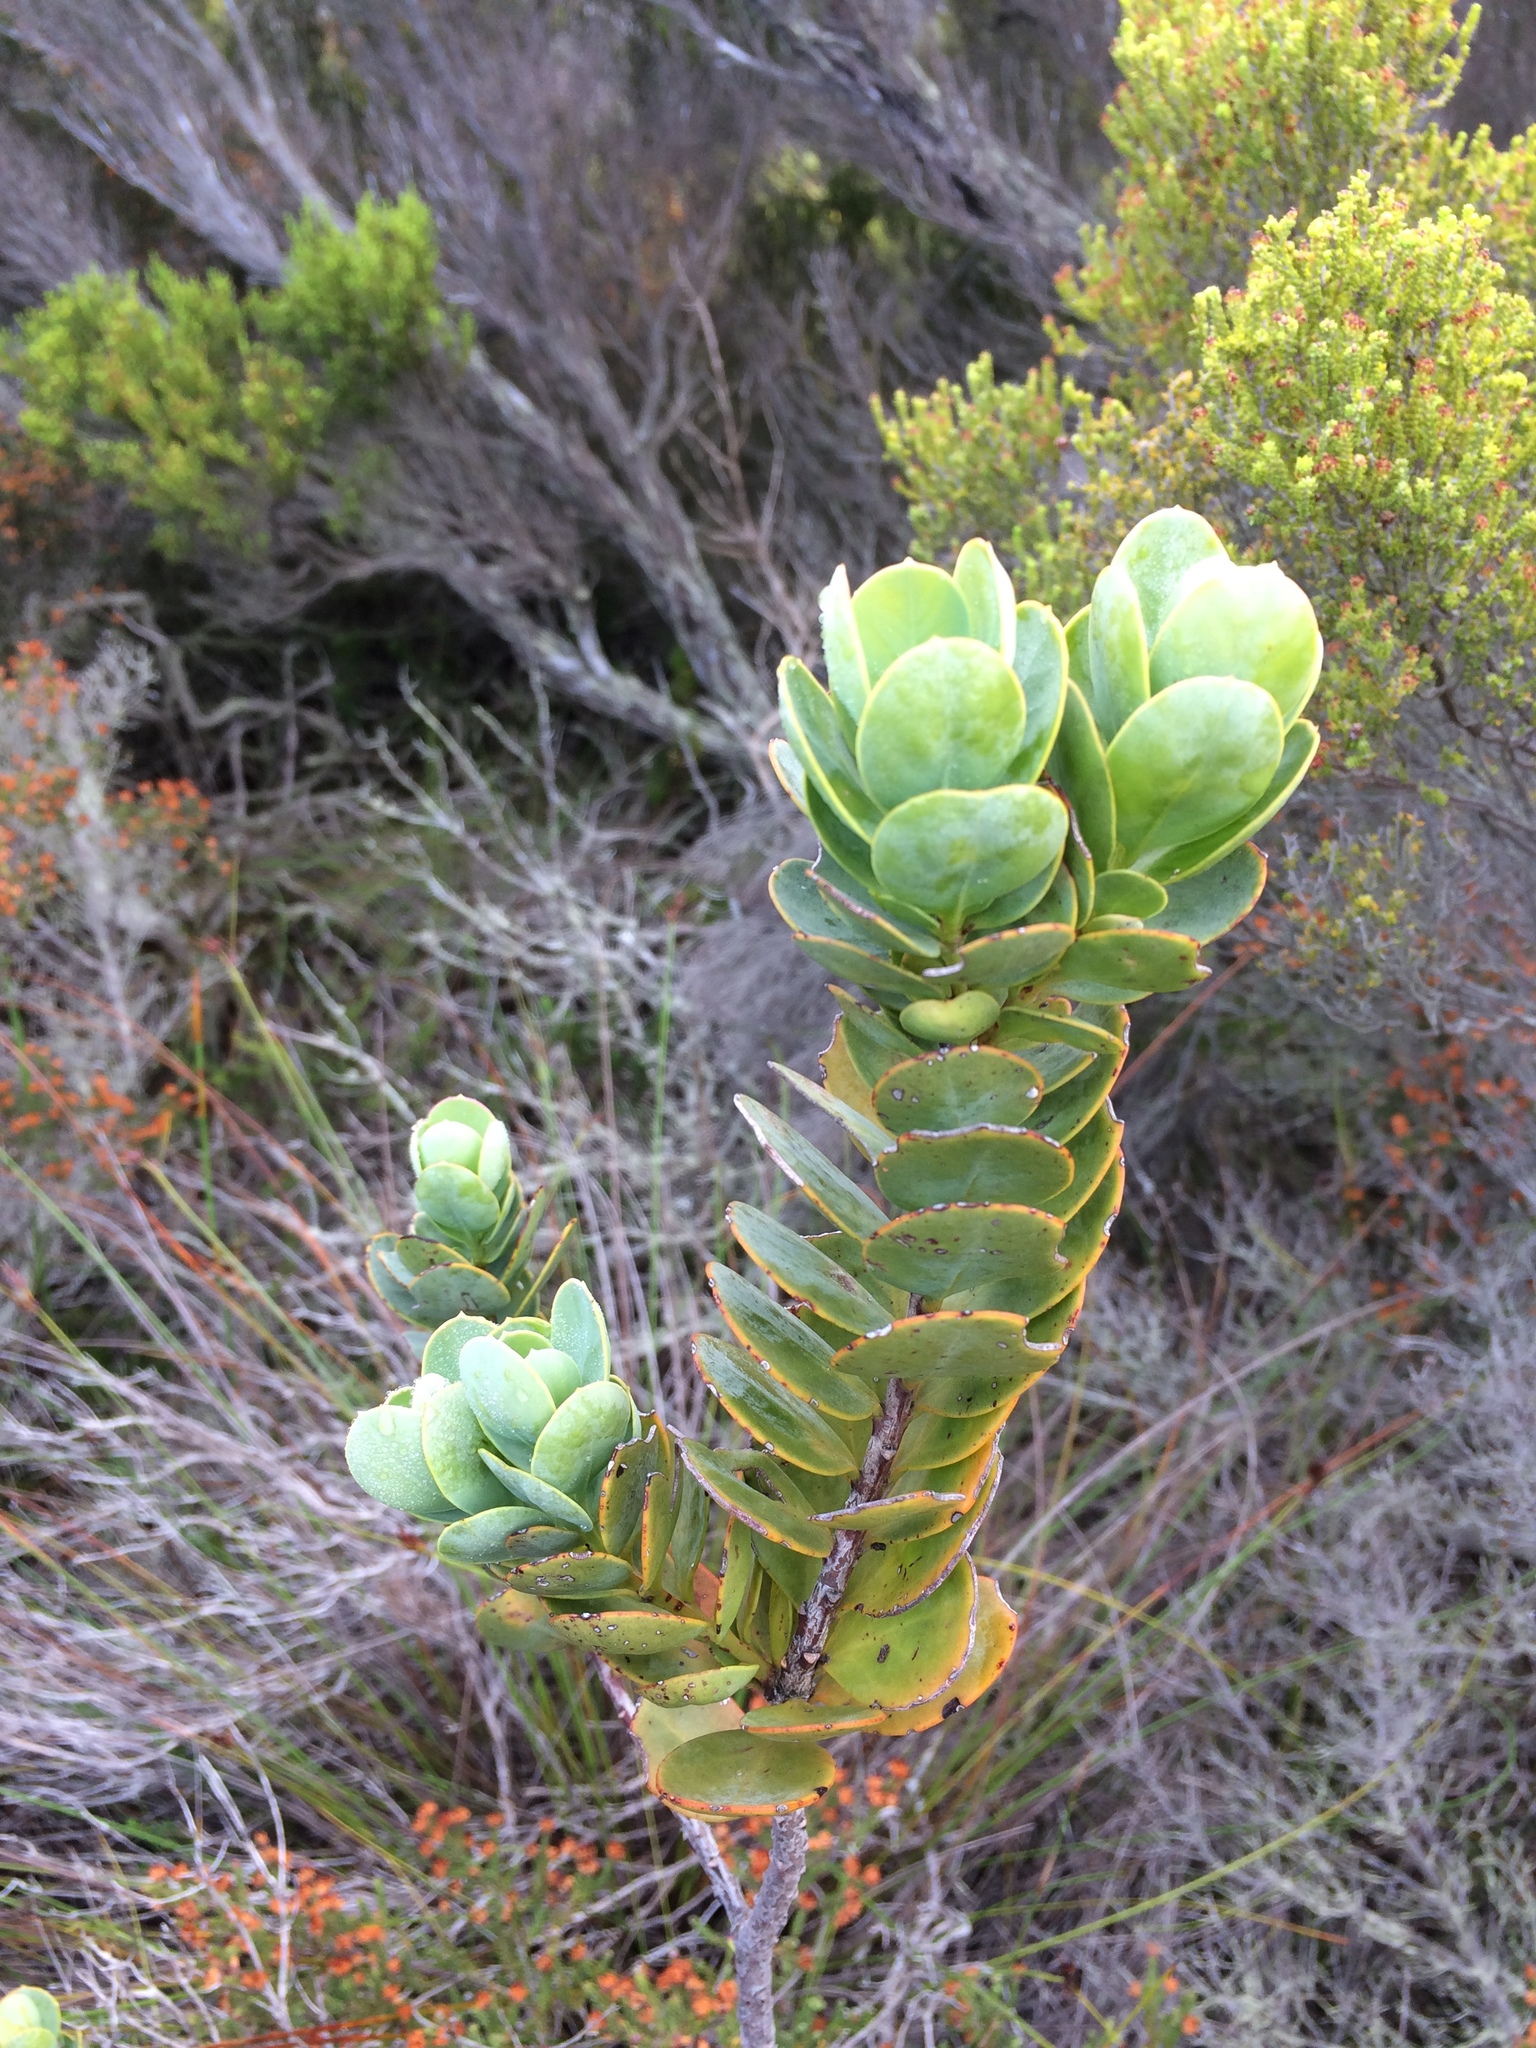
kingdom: Plantae
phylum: Tracheophyta
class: Magnoliopsida
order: Santalales
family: Santalaceae
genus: Osyris
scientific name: Osyris compressa
